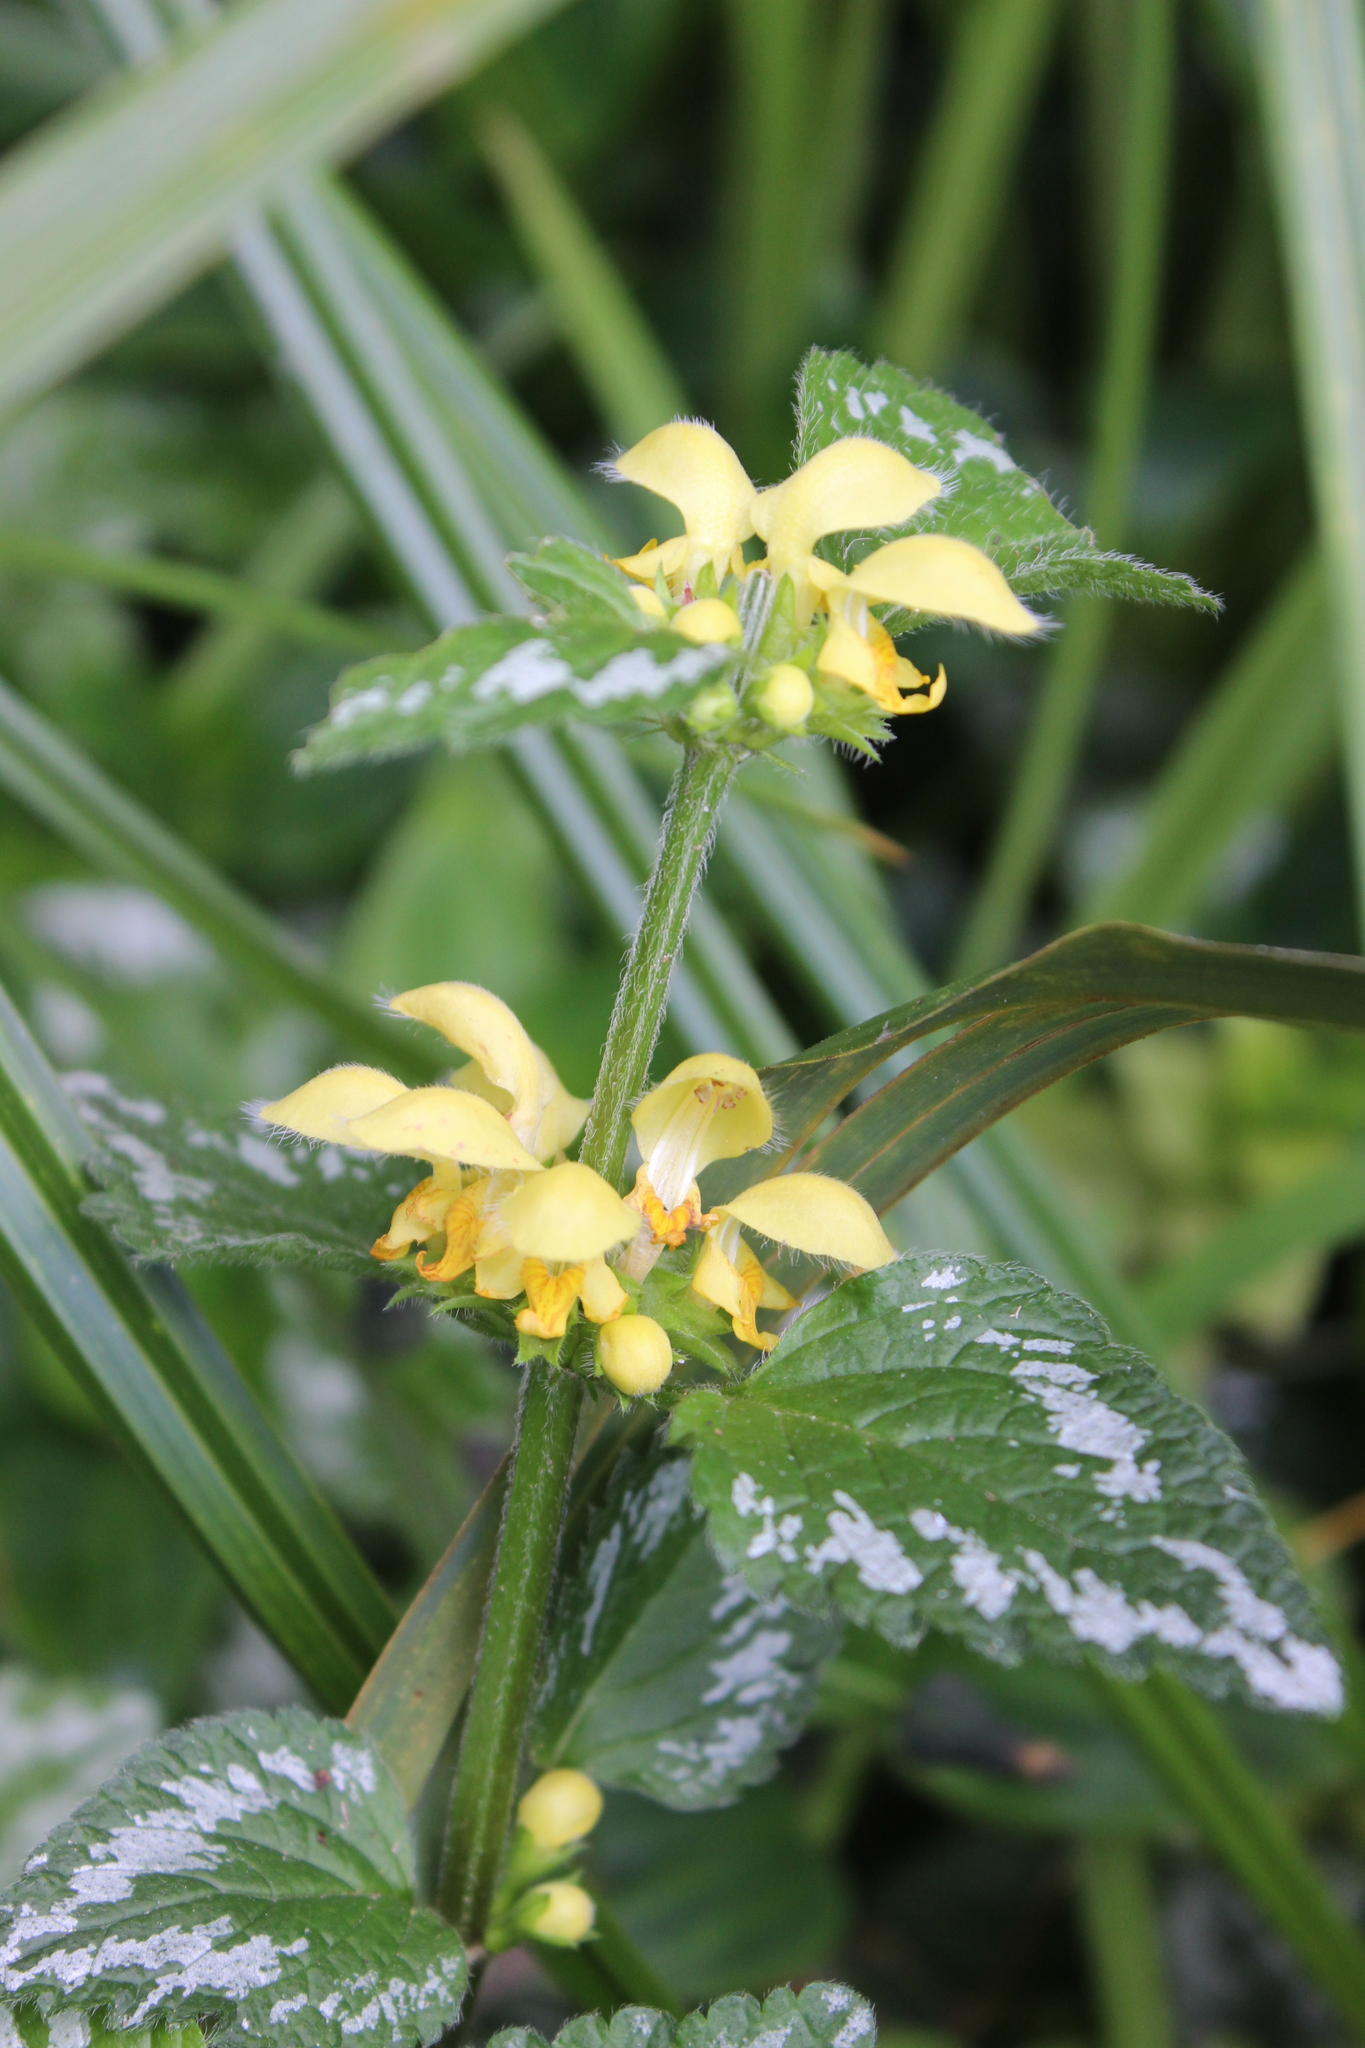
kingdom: Plantae
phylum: Tracheophyta
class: Magnoliopsida
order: Lamiales
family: Lamiaceae
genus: Lamium
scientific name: Lamium galeobdolon
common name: Yellow archangel
